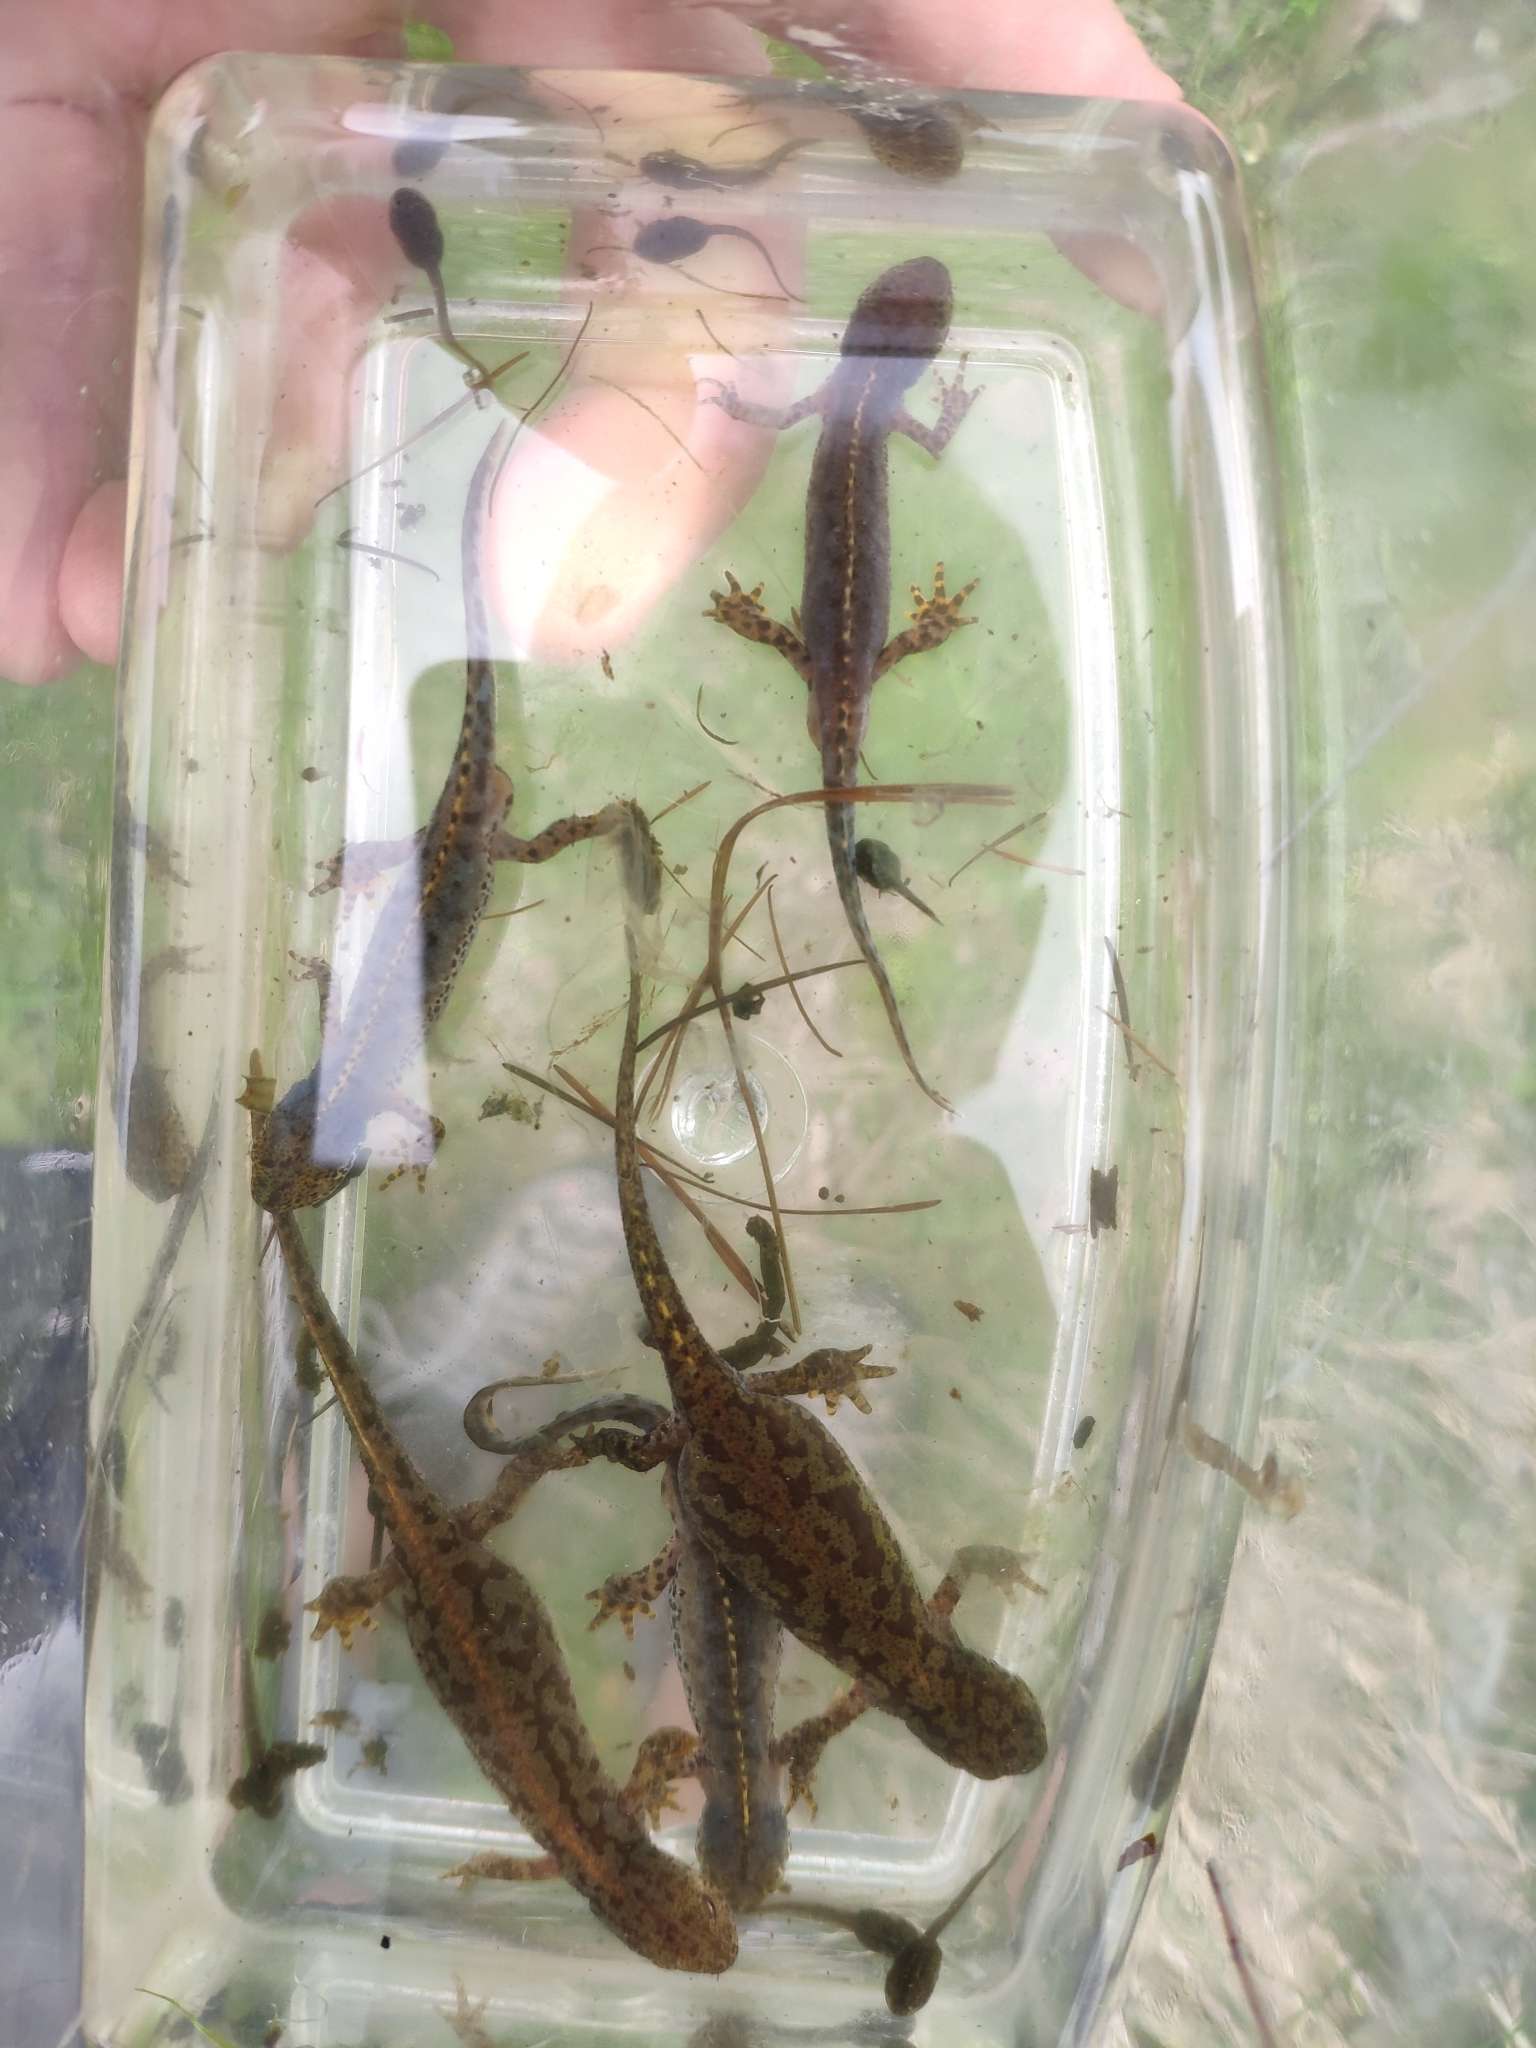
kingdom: Animalia
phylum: Chordata
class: Amphibia
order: Caudata
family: Salamandridae
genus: Ichthyosaura
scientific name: Ichthyosaura alpestris
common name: Alpine newt
